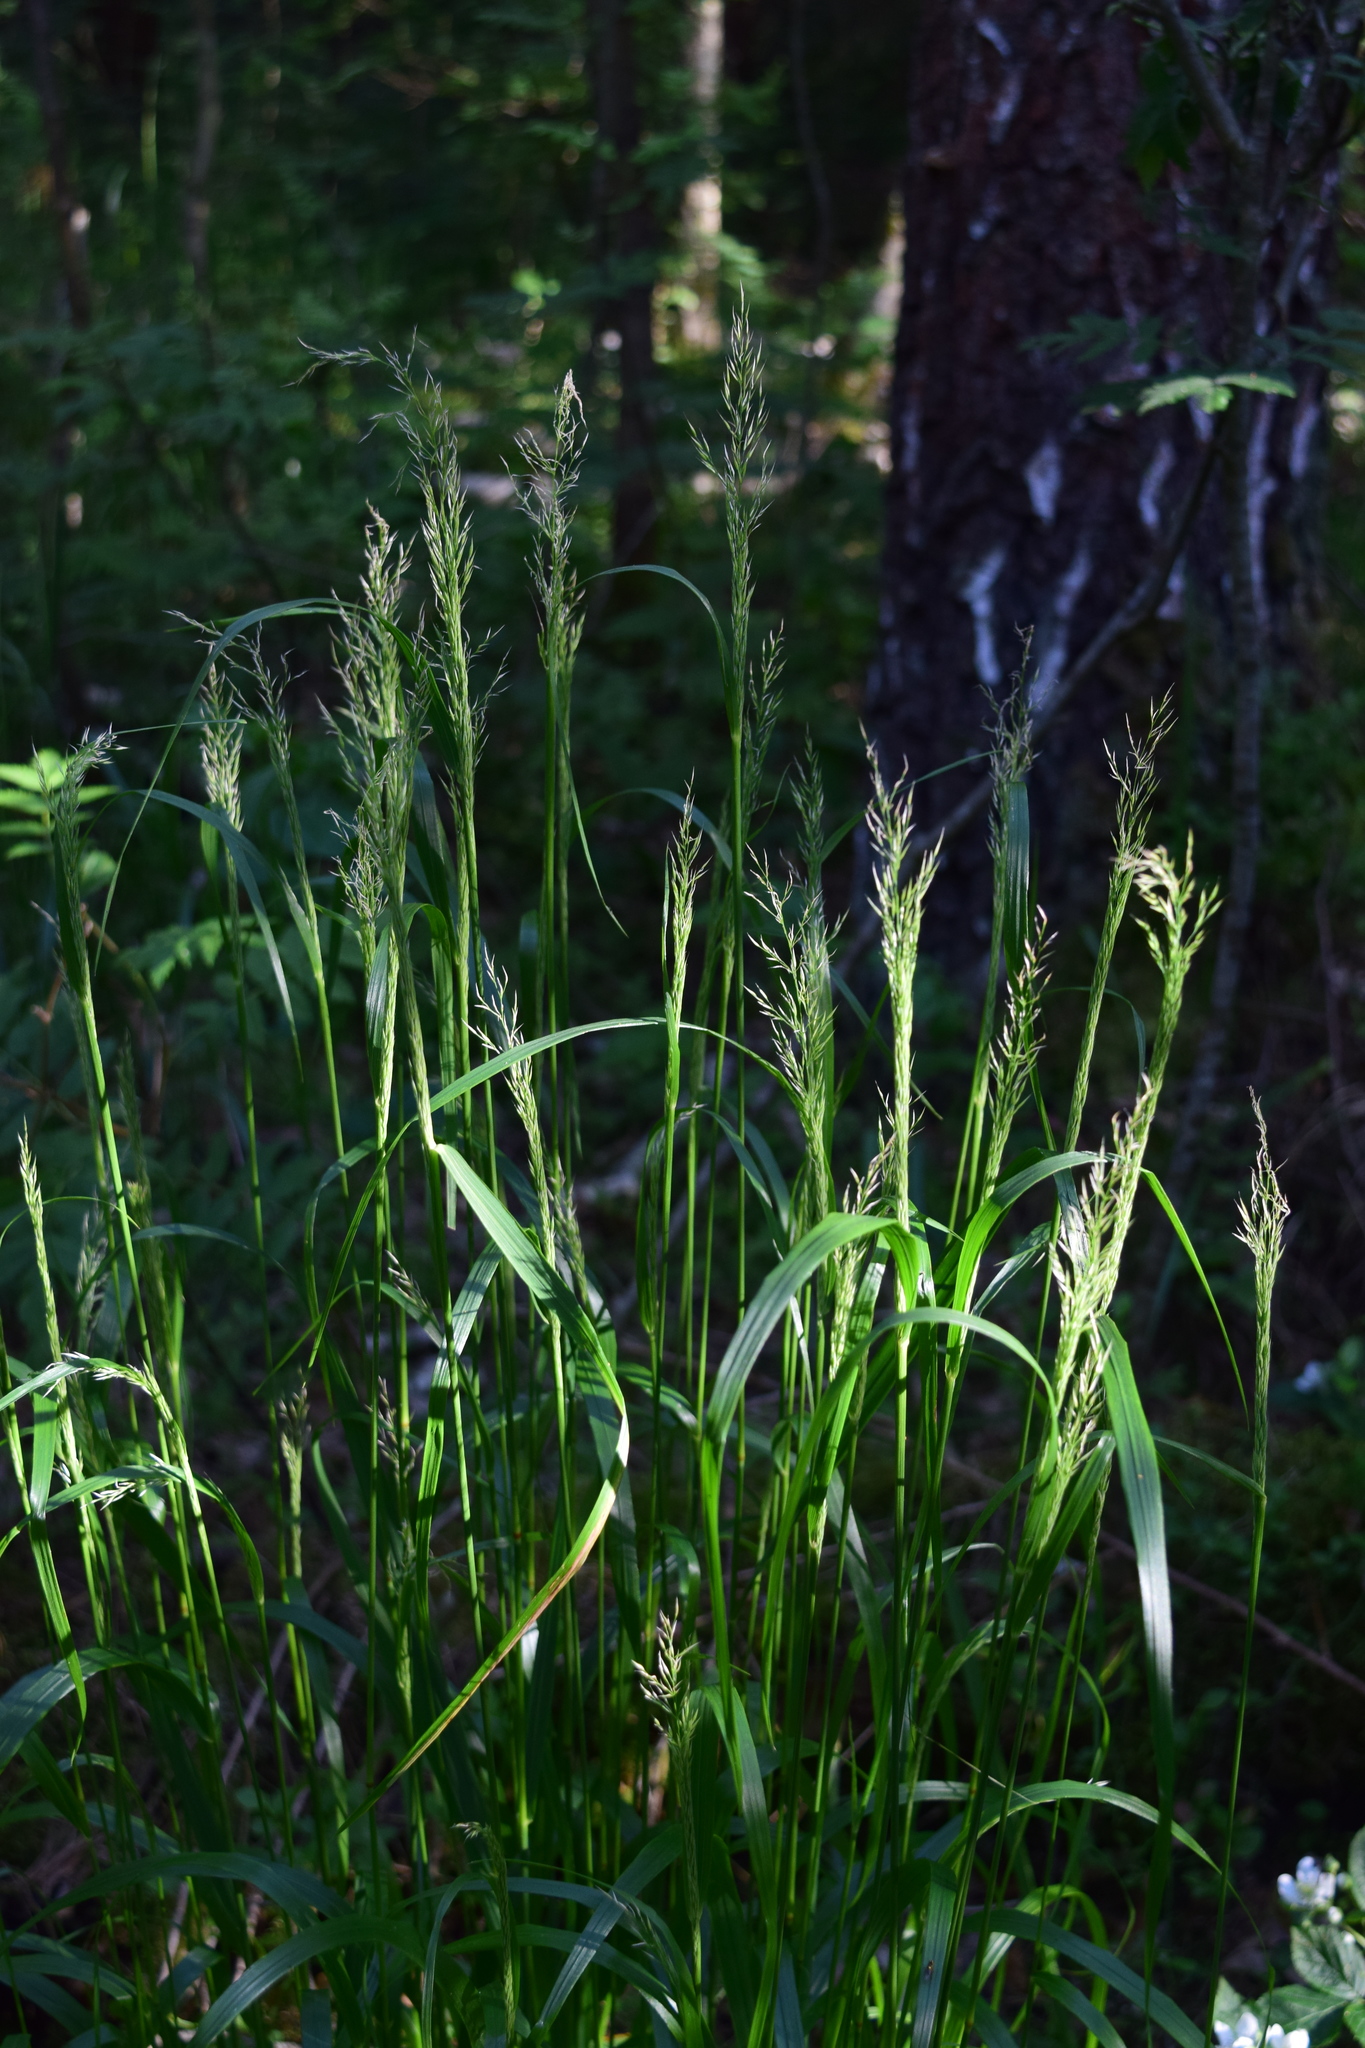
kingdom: Plantae
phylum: Tracheophyta
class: Liliopsida
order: Poales
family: Poaceae
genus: Calamagrostis
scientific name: Calamagrostis arundinacea
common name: Metskastik
